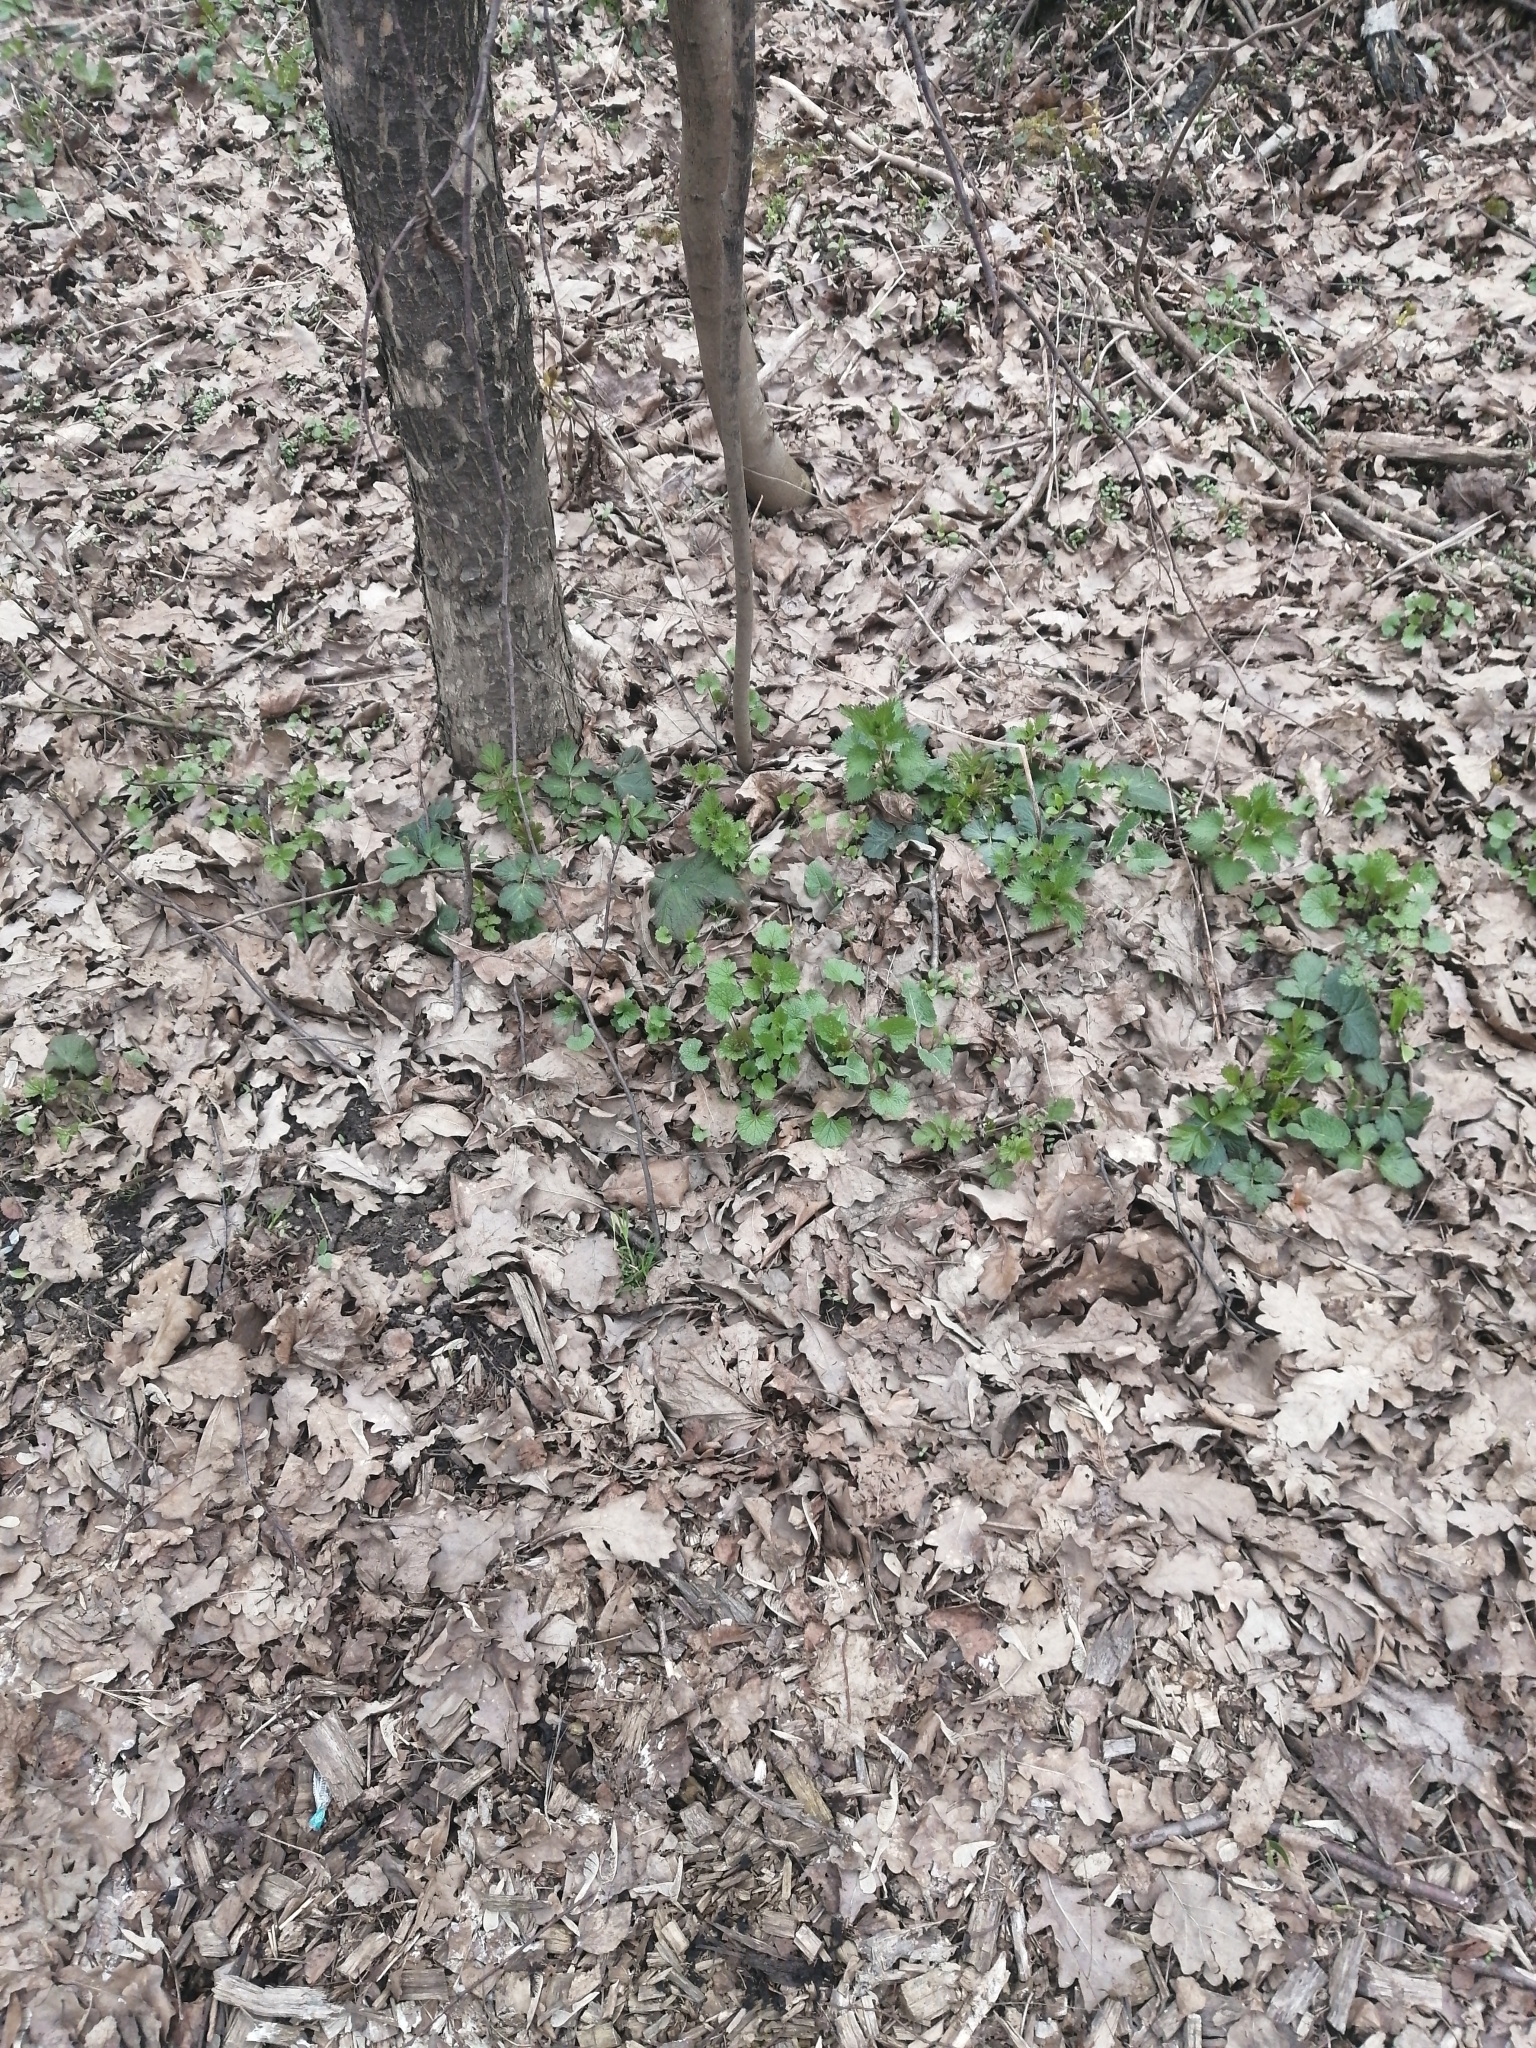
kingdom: Plantae
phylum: Tracheophyta
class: Magnoliopsida
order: Brassicales
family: Brassicaceae
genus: Alliaria
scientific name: Alliaria petiolata
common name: Garlic mustard
